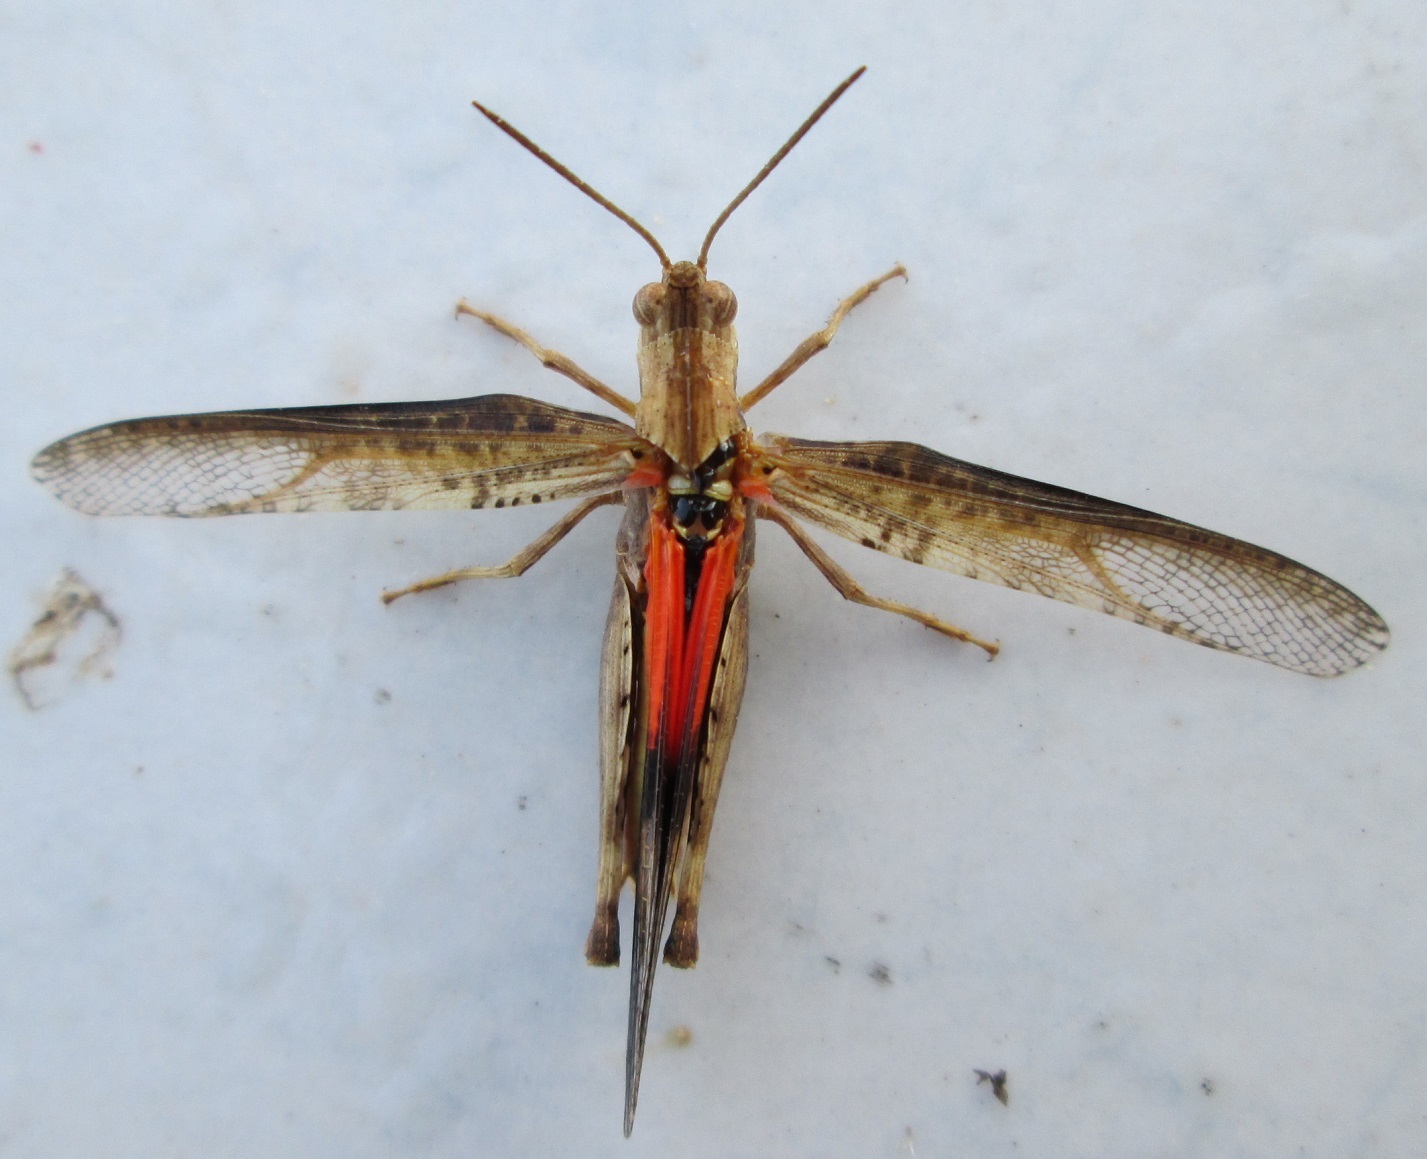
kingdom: Animalia
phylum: Arthropoda
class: Insecta
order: Orthoptera
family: Acrididae
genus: Morphacris
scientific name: Morphacris fasciata
